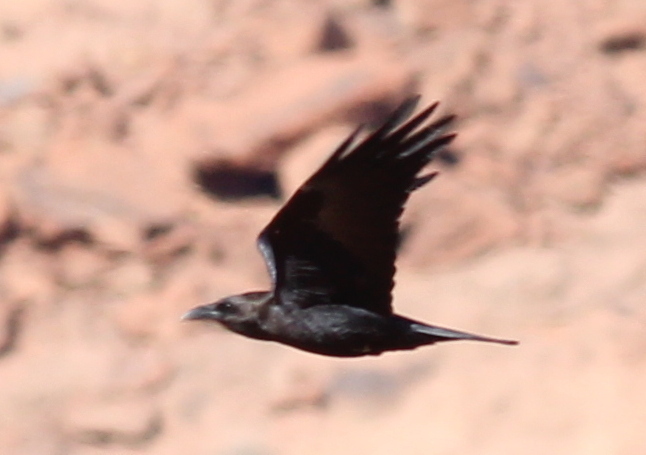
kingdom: Animalia
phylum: Chordata
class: Aves
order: Passeriformes
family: Corvidae
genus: Corvus
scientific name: Corvus ruficollis
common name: Brown-necked raven
